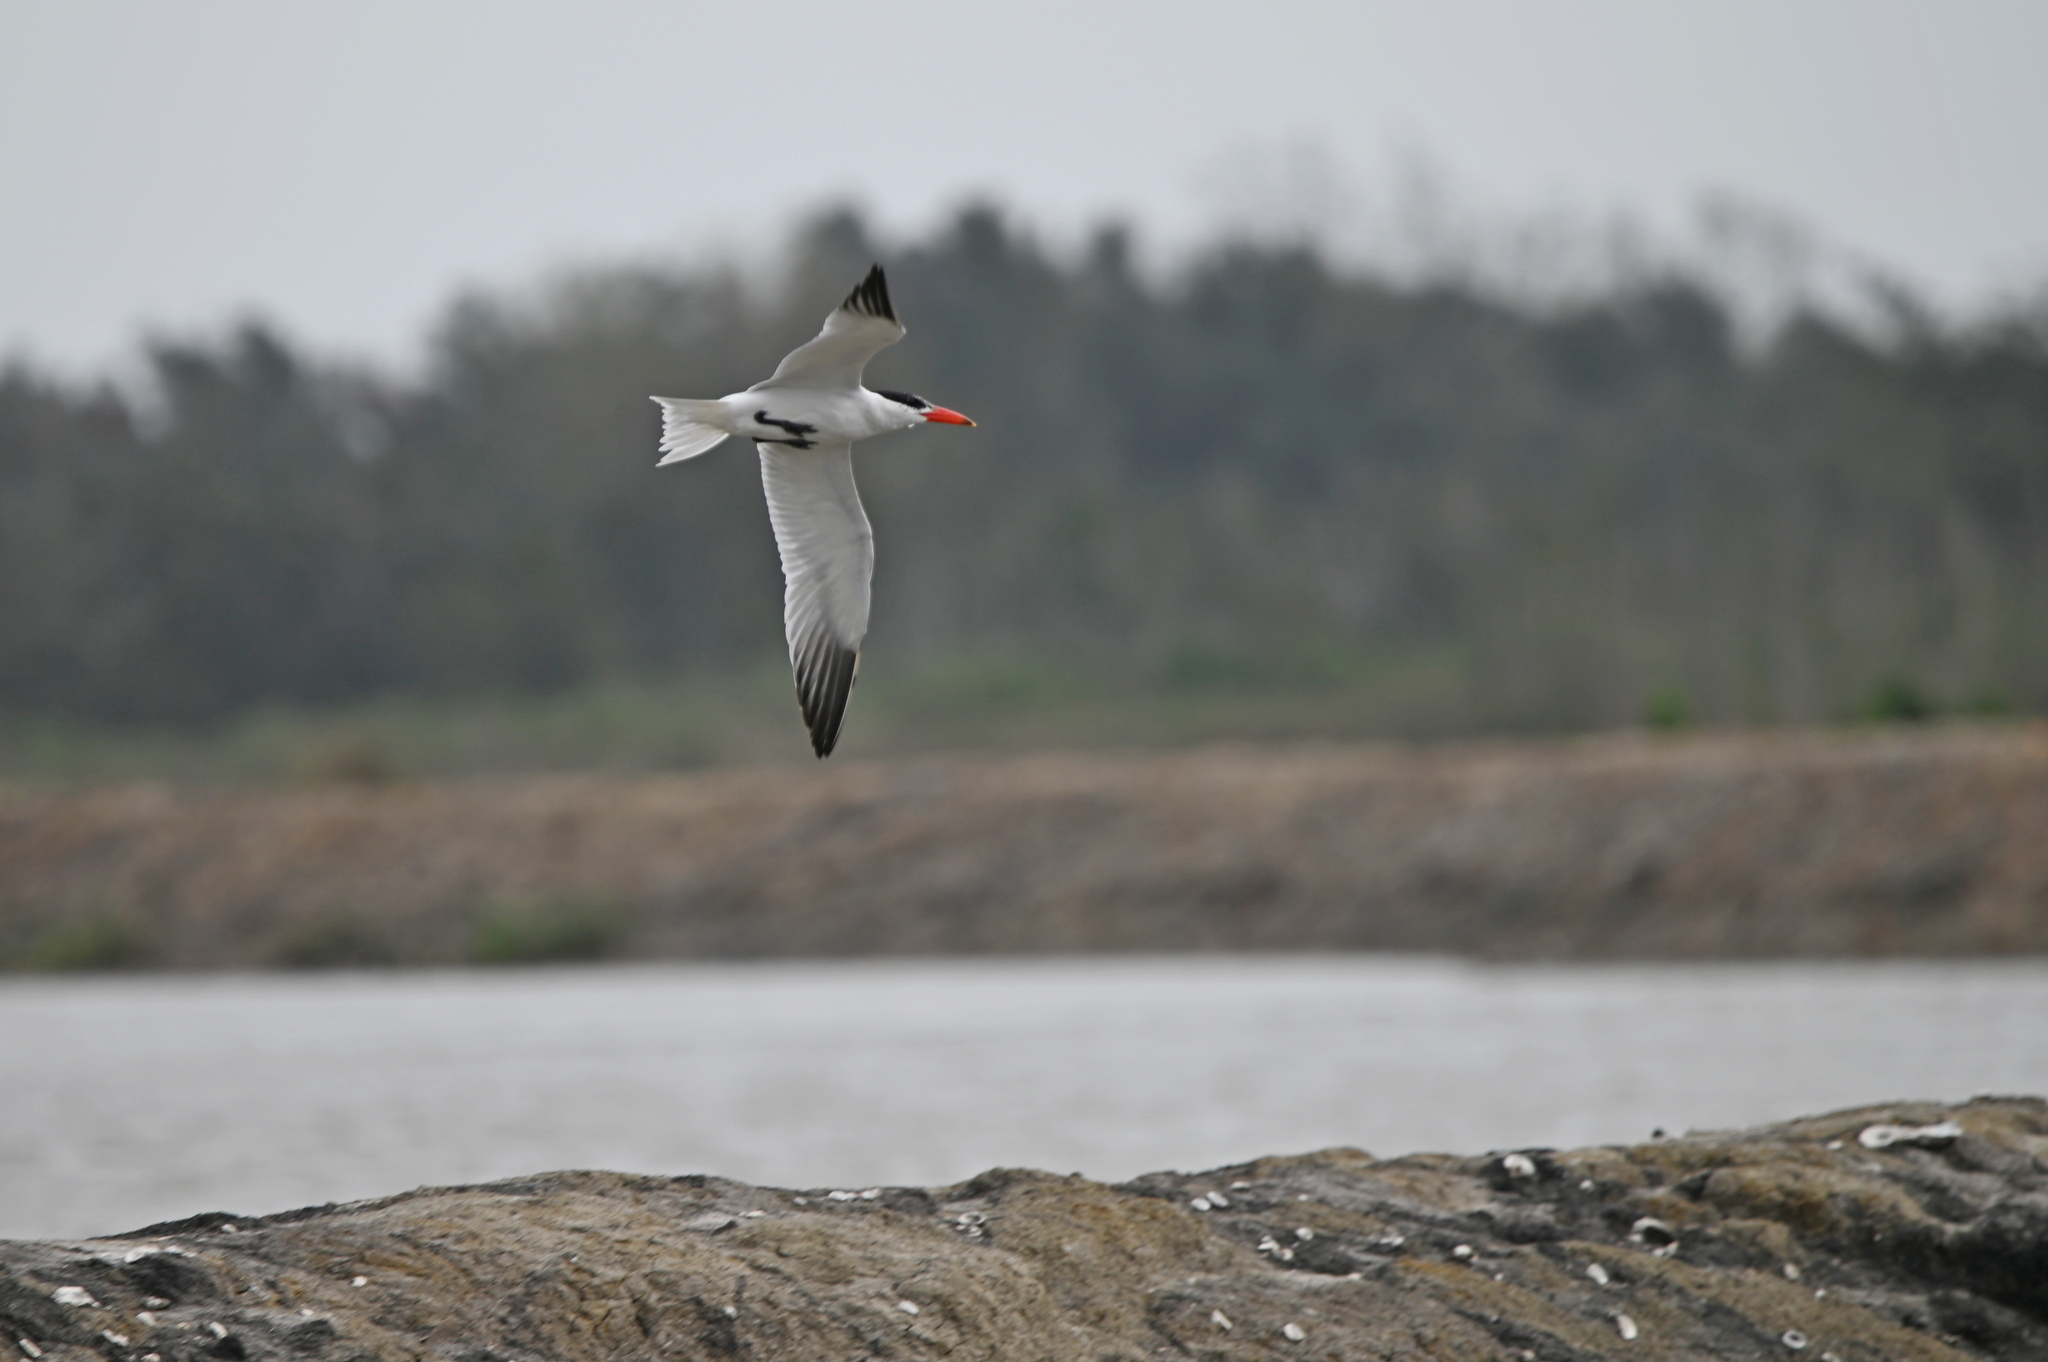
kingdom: Animalia
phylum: Chordata
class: Aves
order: Charadriiformes
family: Laridae
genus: Hydroprogne
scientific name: Hydroprogne caspia
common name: Caspian tern
